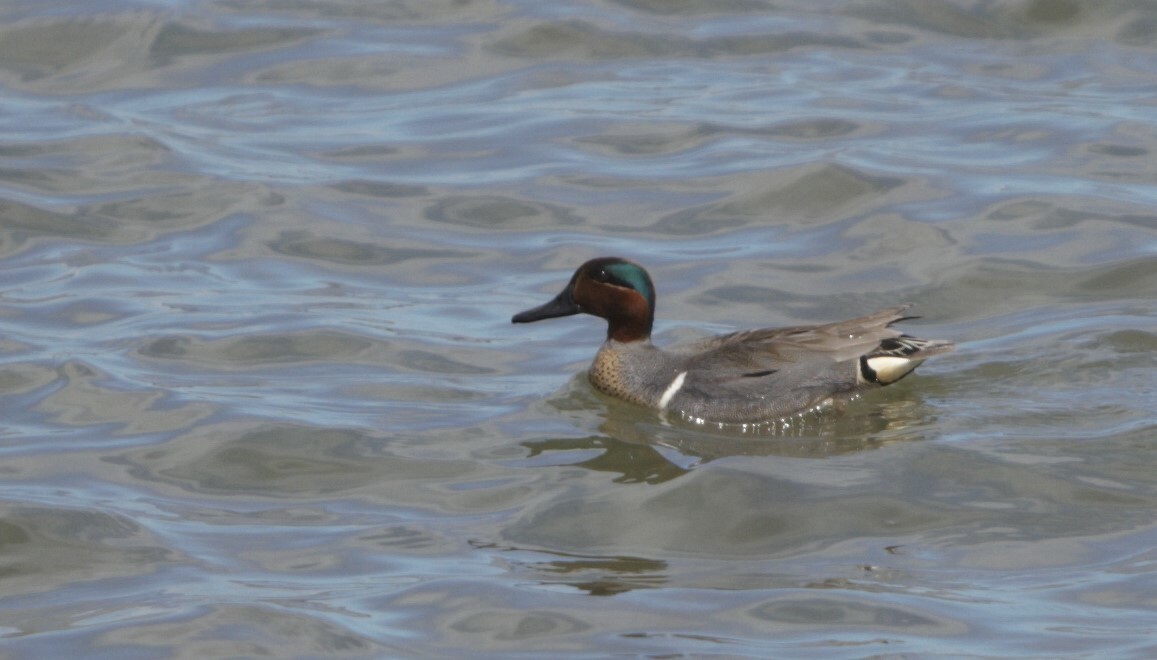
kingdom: Animalia
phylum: Chordata
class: Aves
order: Anseriformes
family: Anatidae
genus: Anas
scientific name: Anas crecca
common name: Eurasian teal
